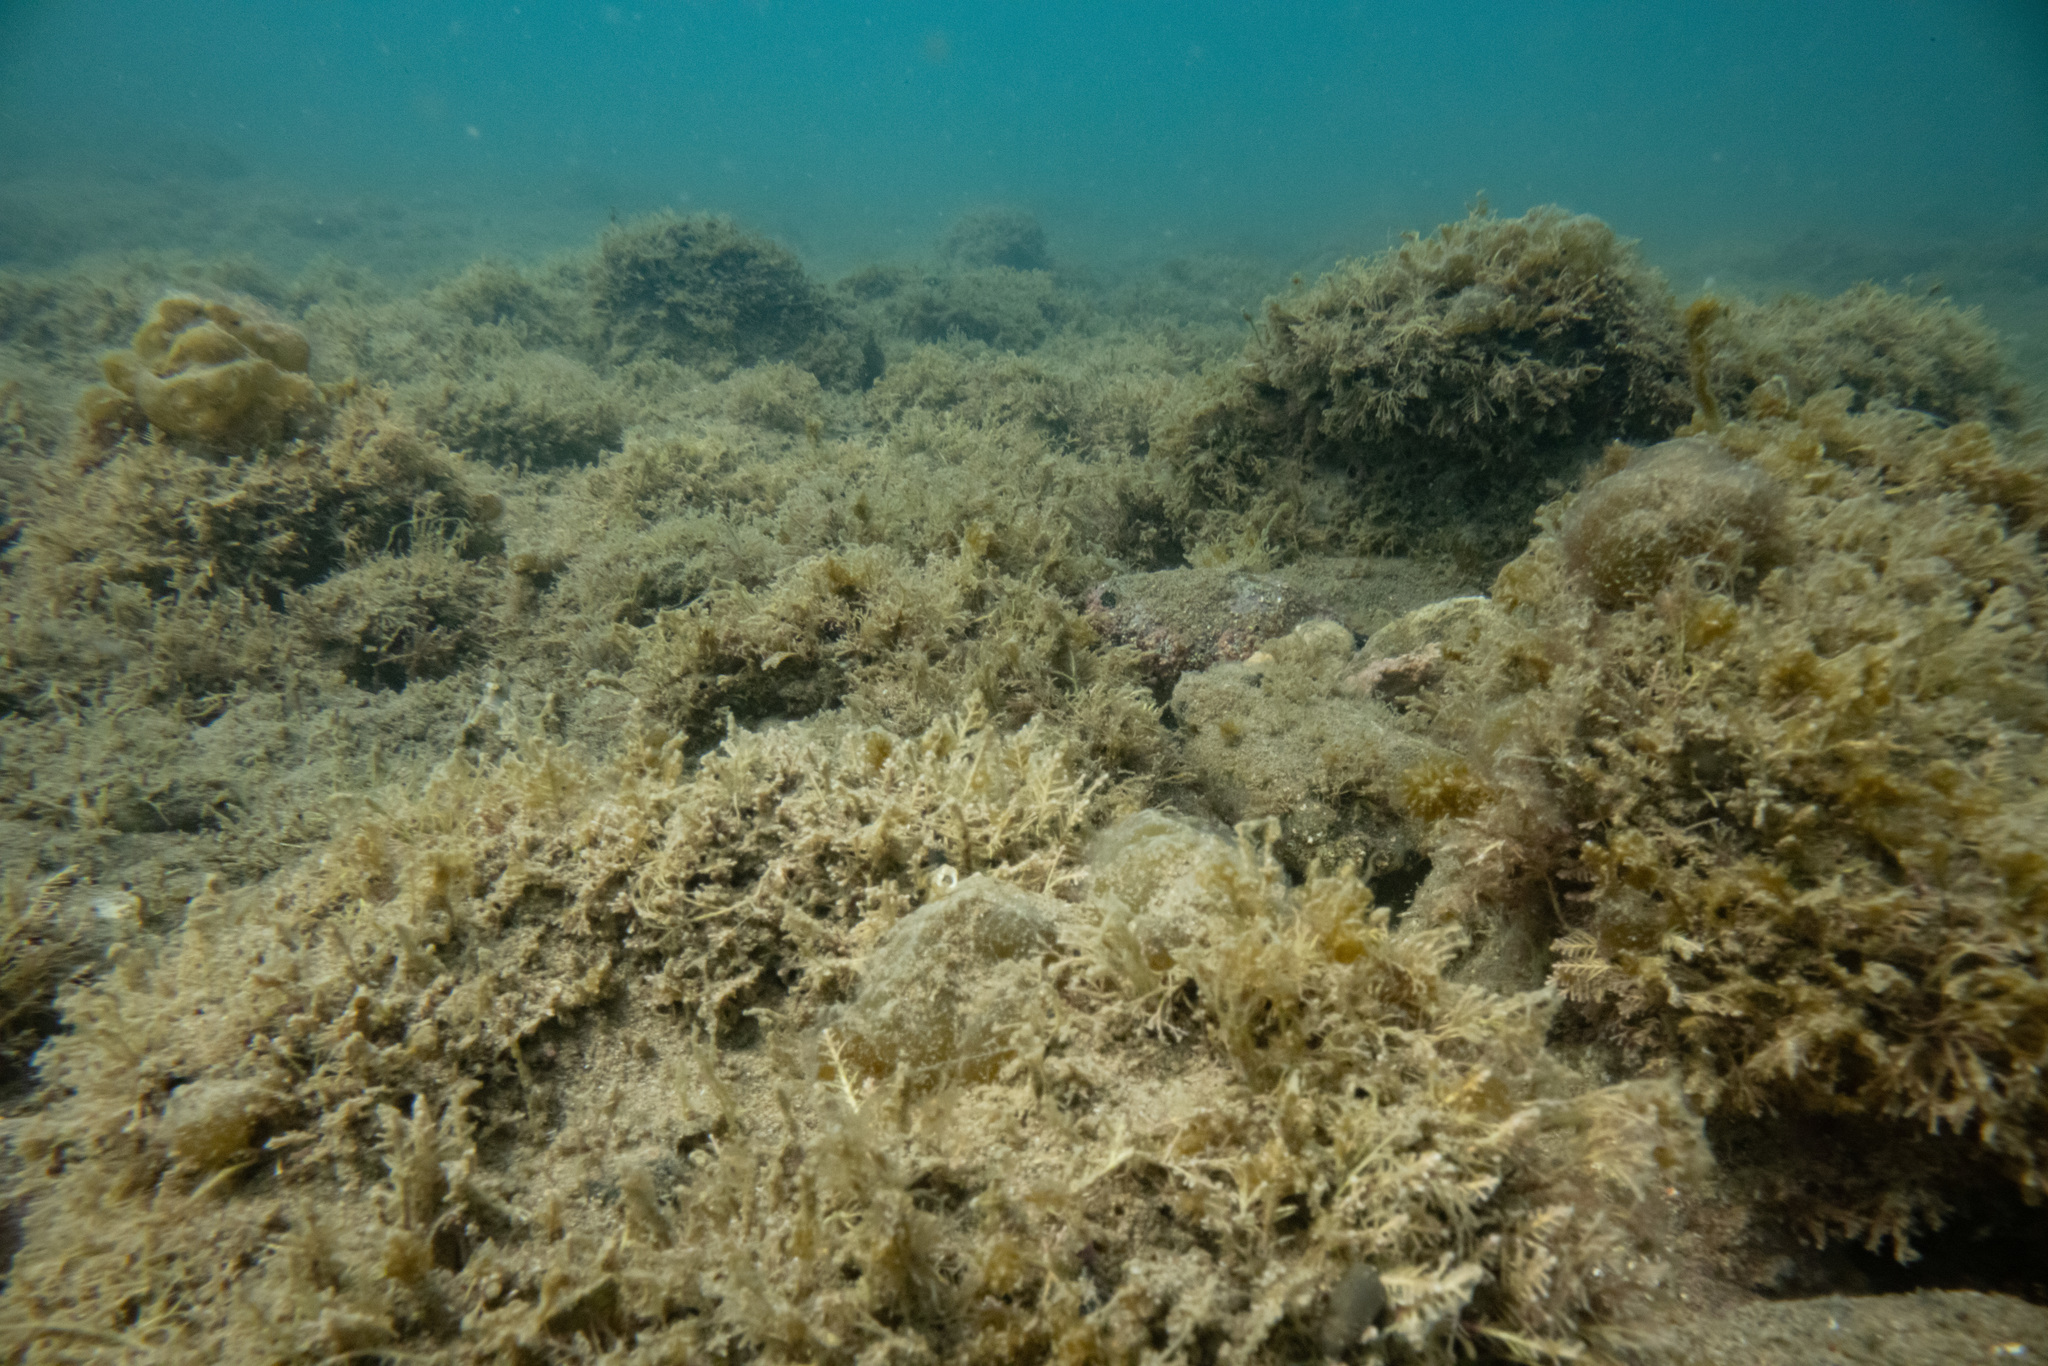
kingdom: Plantae
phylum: Rhodophyta
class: Florideophyceae
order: Corallinales
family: Corallinaceae
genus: Corallina
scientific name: Corallina officinalis
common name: Coral weed
